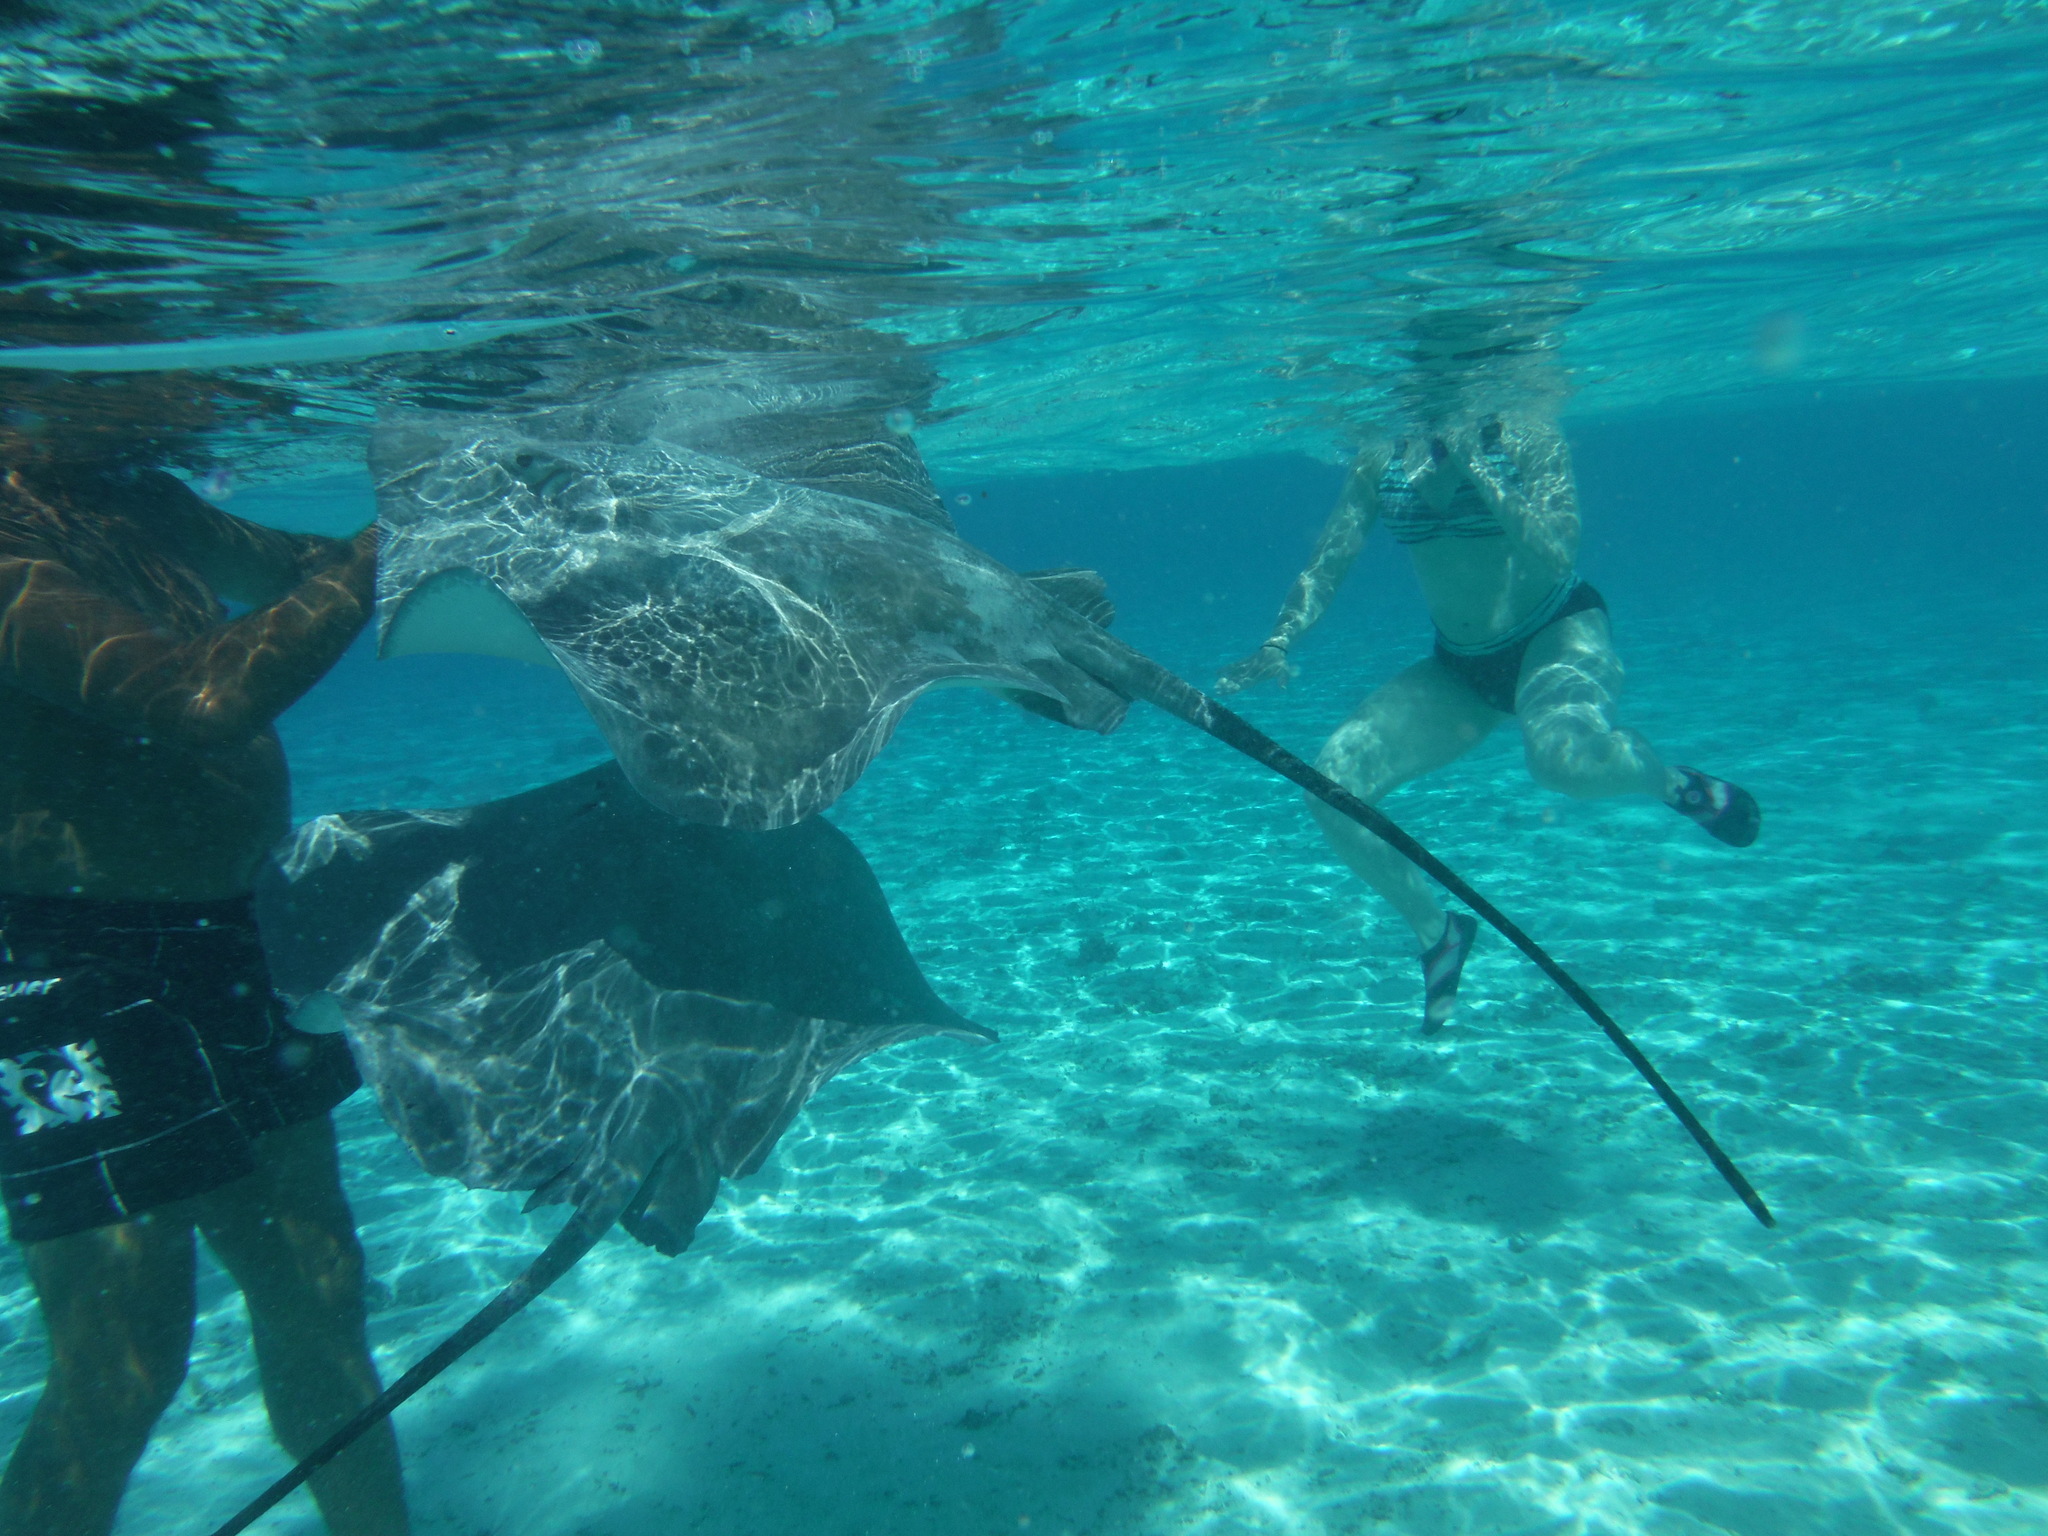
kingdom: Animalia
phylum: Chordata
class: Elasmobranchii
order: Myliobatiformes
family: Dasyatidae
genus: Pateobatis
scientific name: Pateobatis fai
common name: Pink whipray
